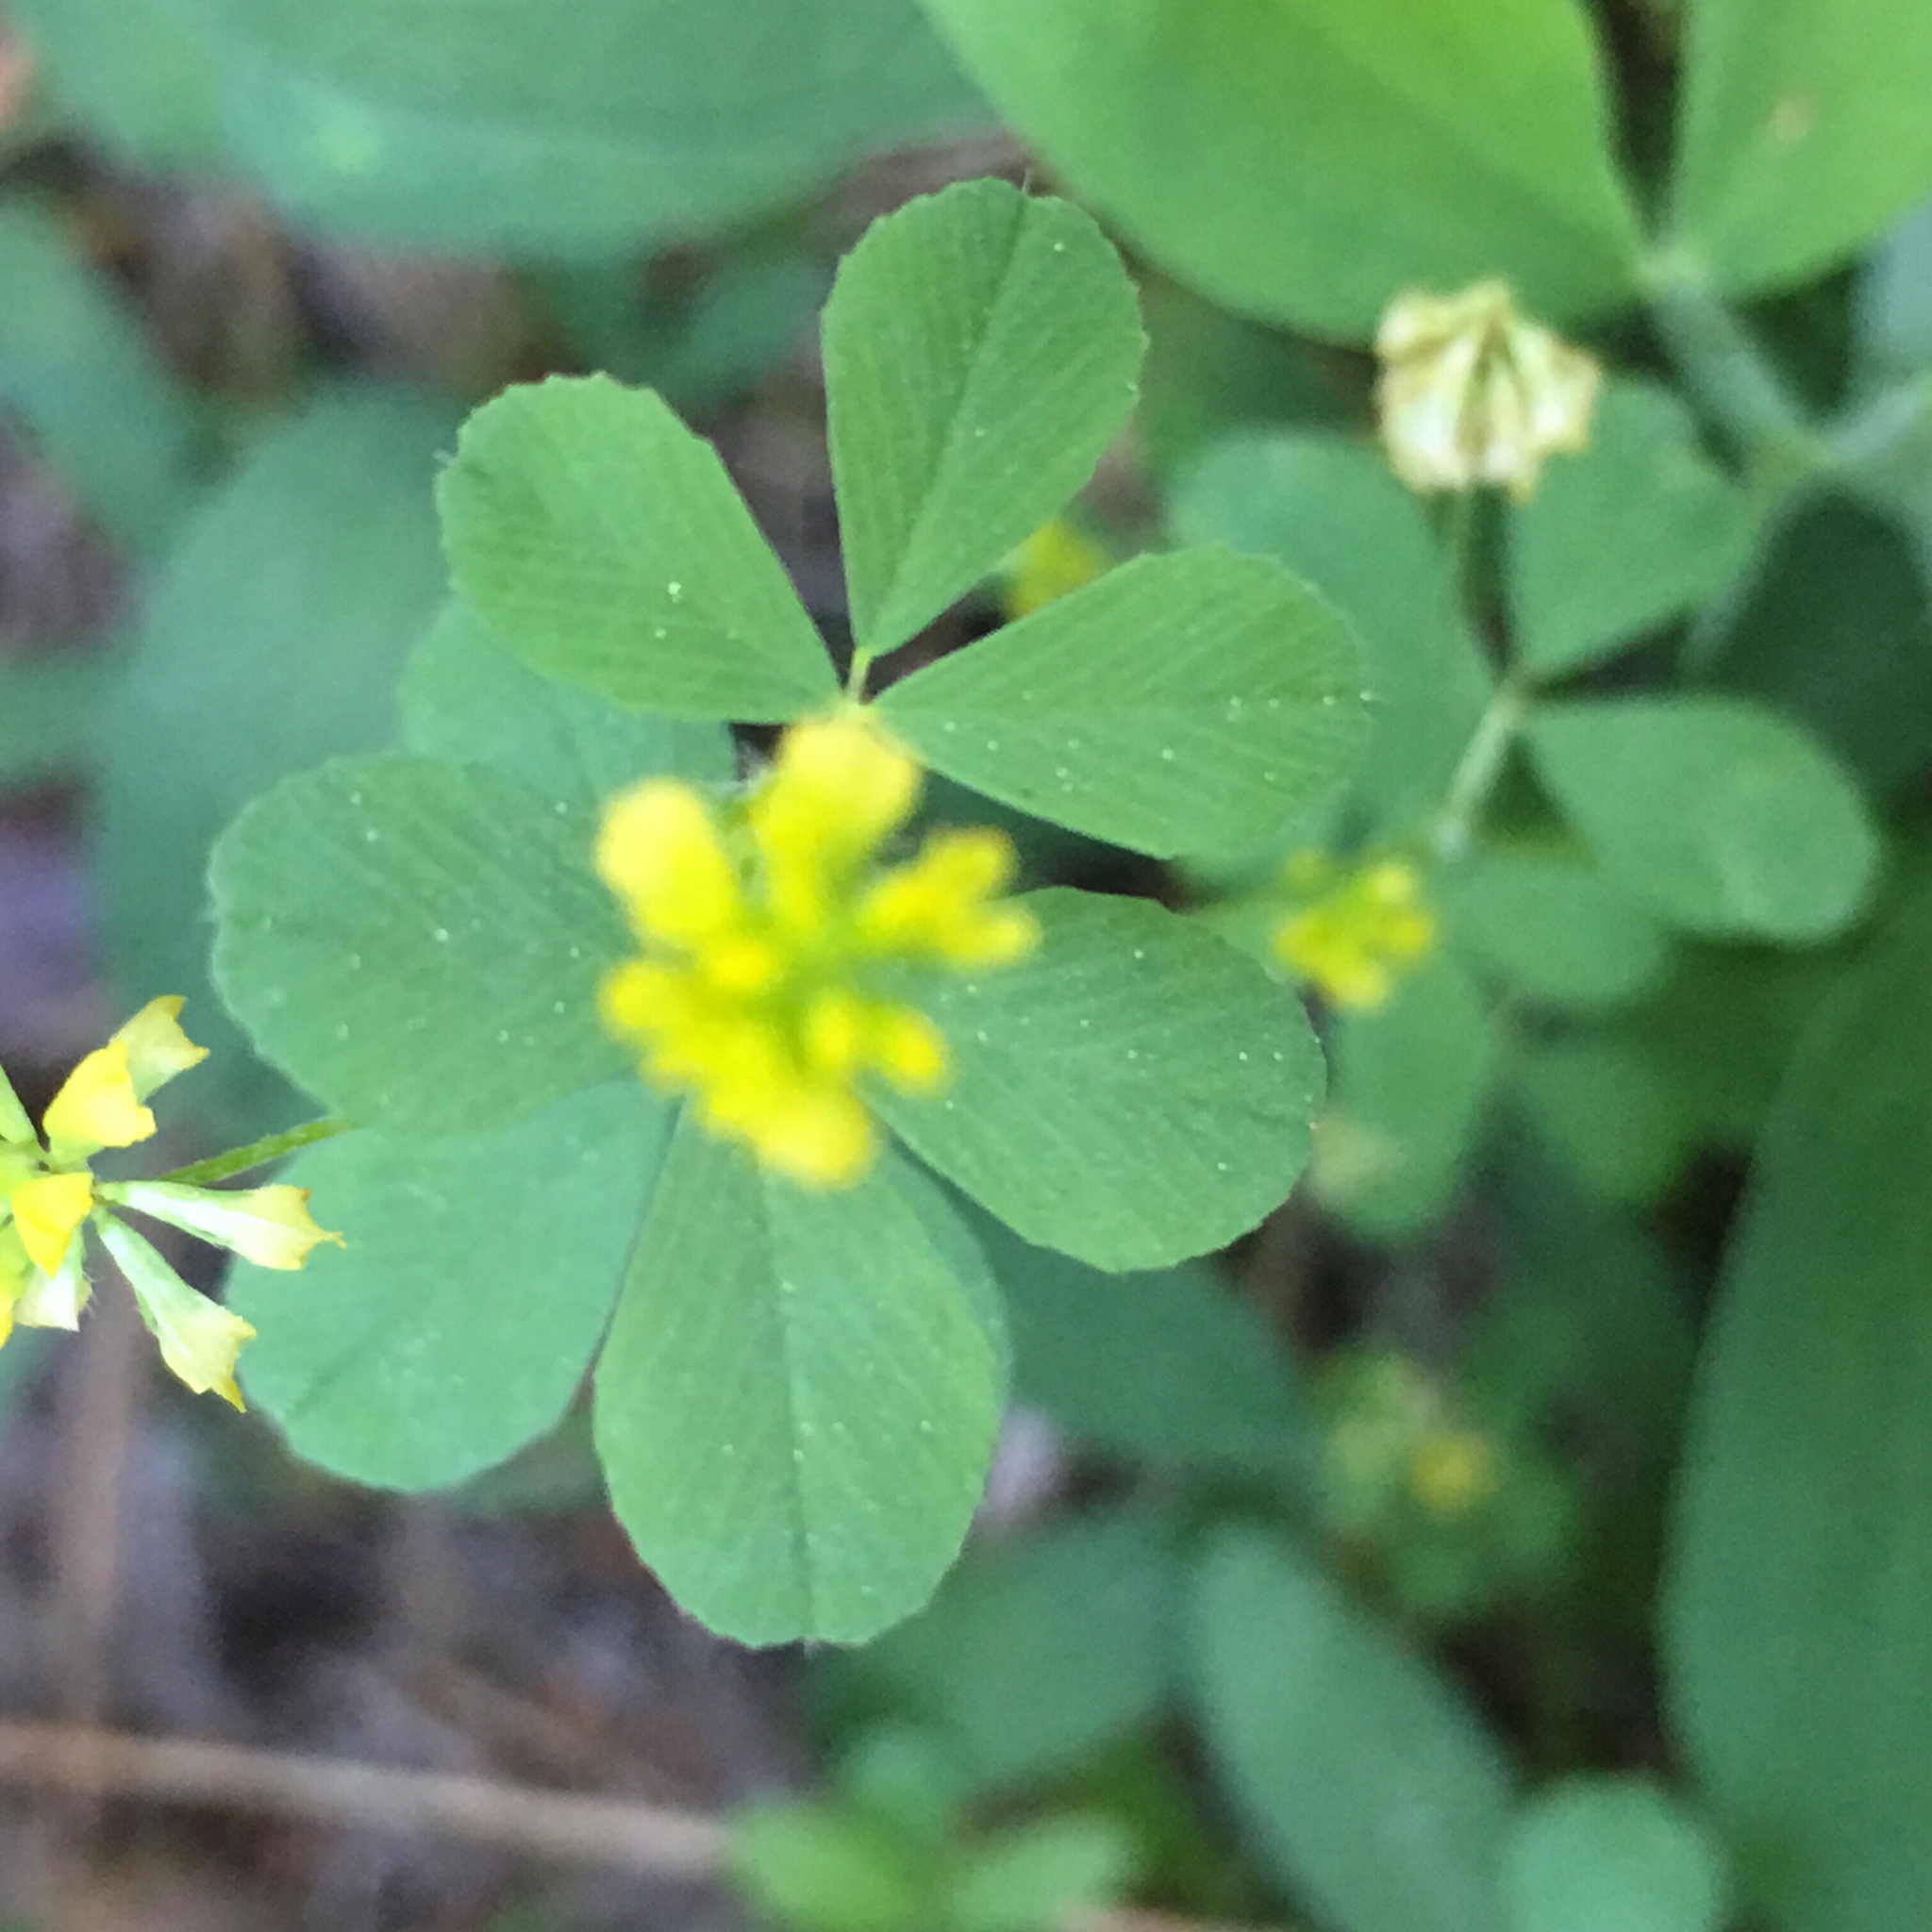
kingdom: Plantae
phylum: Tracheophyta
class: Magnoliopsida
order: Fabales
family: Fabaceae
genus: Trifolium
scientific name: Trifolium dubium
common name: Suckling clover
